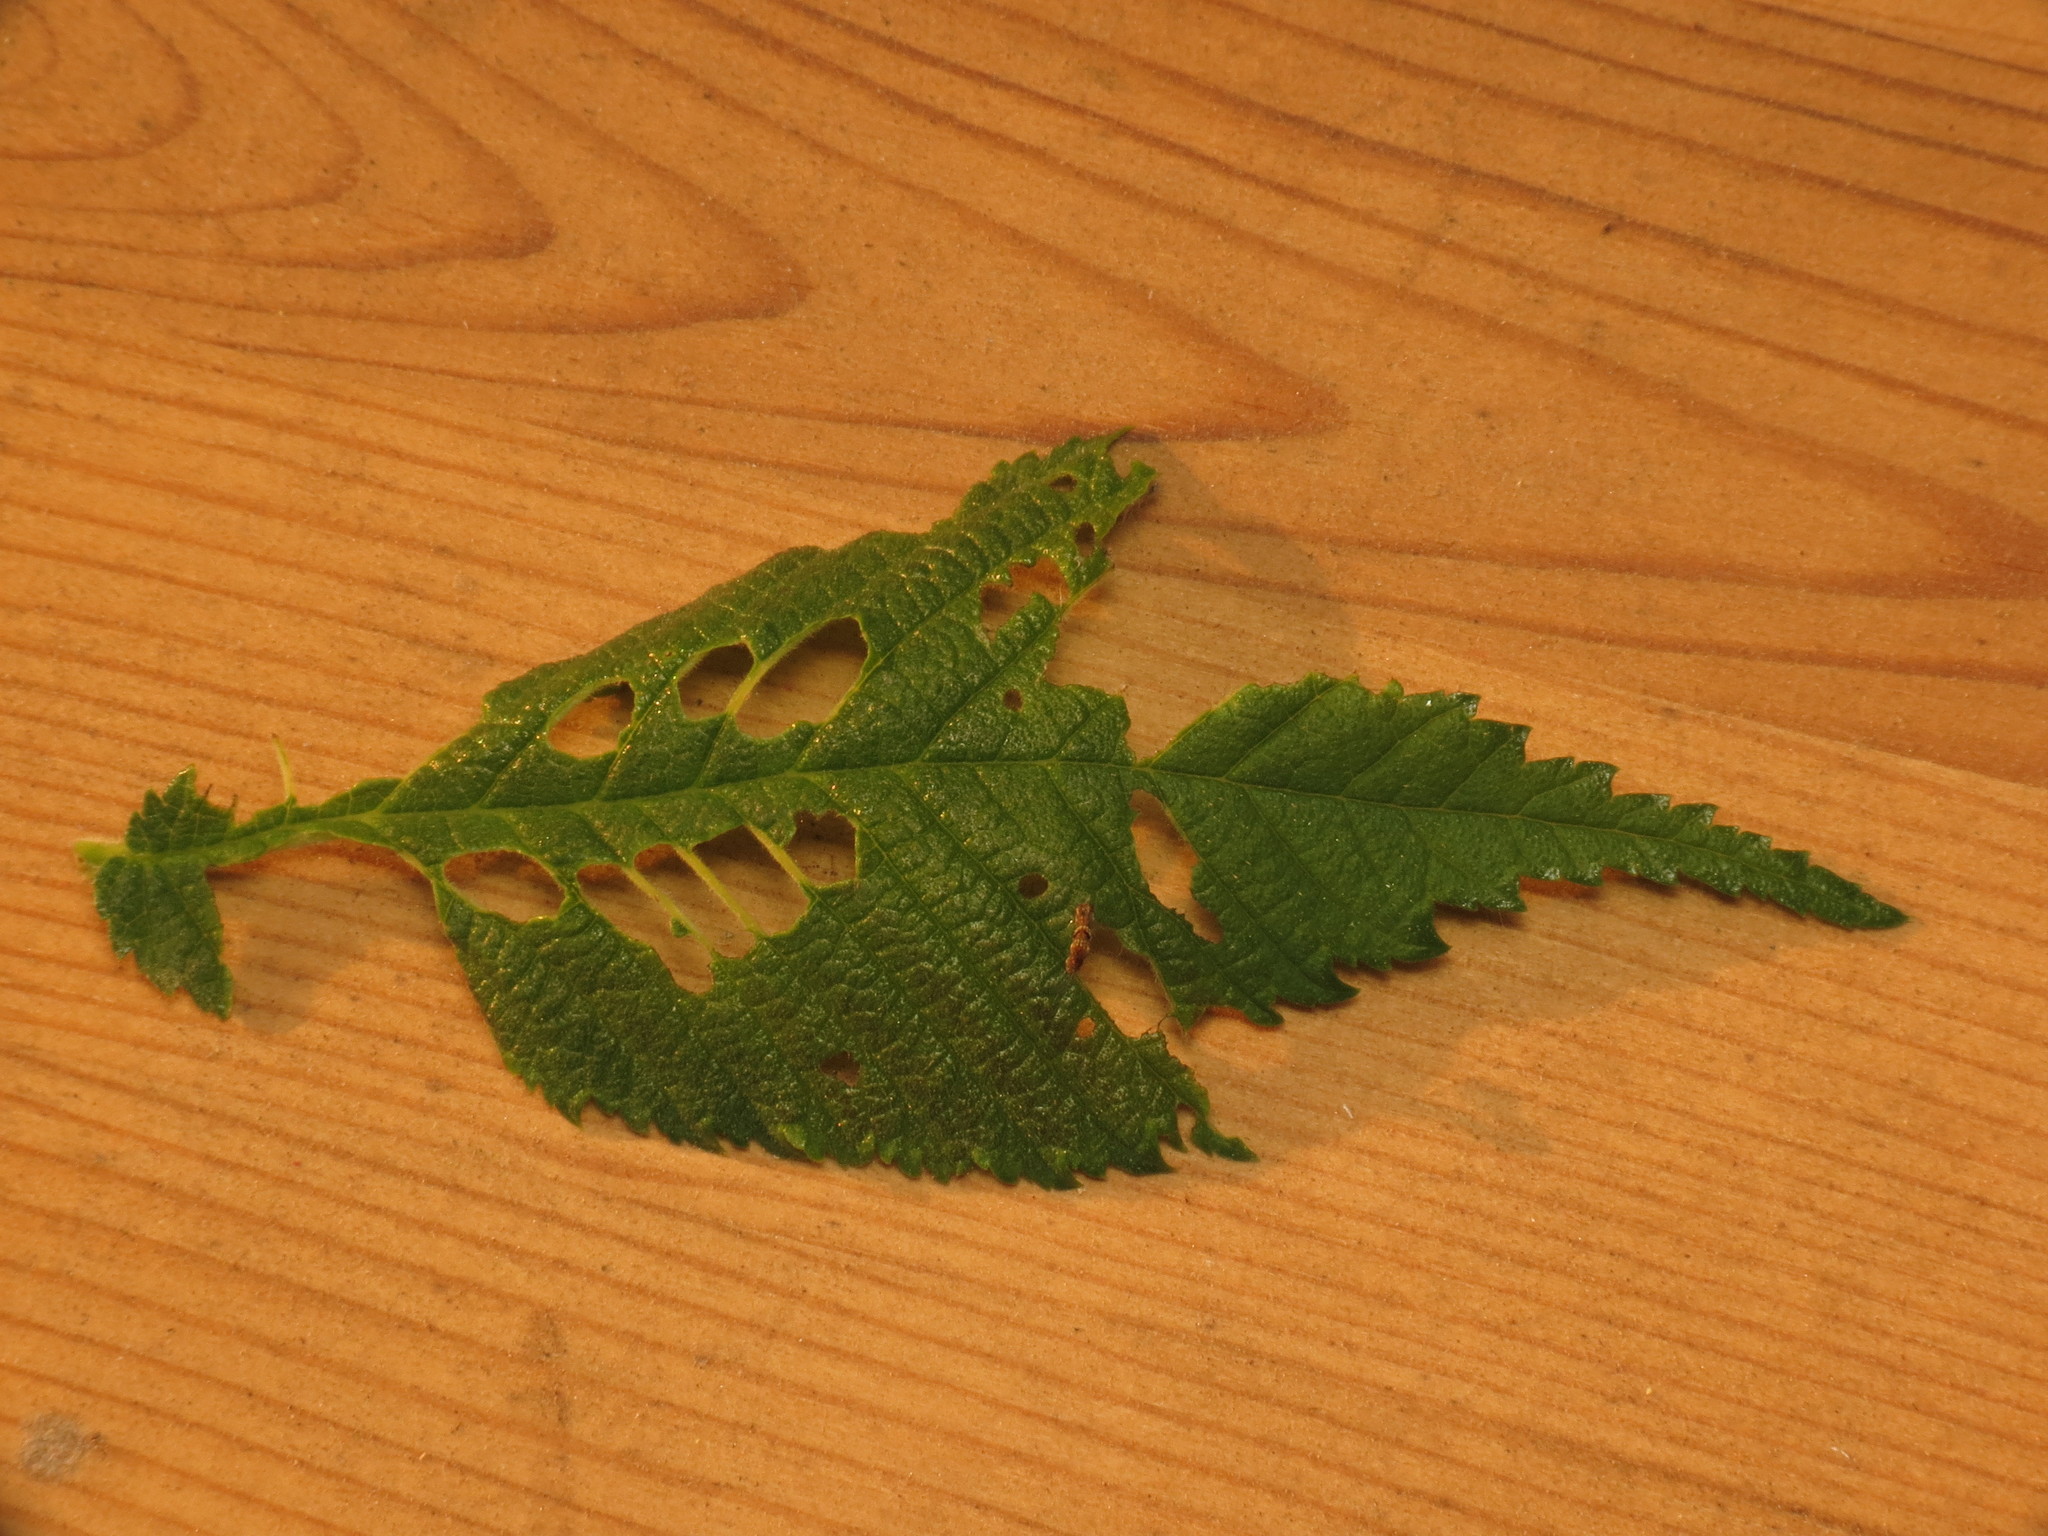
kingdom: Animalia
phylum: Arthropoda
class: Insecta
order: Lepidoptera
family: Geometridae
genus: Ectropis
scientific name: Ectropis crepuscularia
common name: Engrailed
